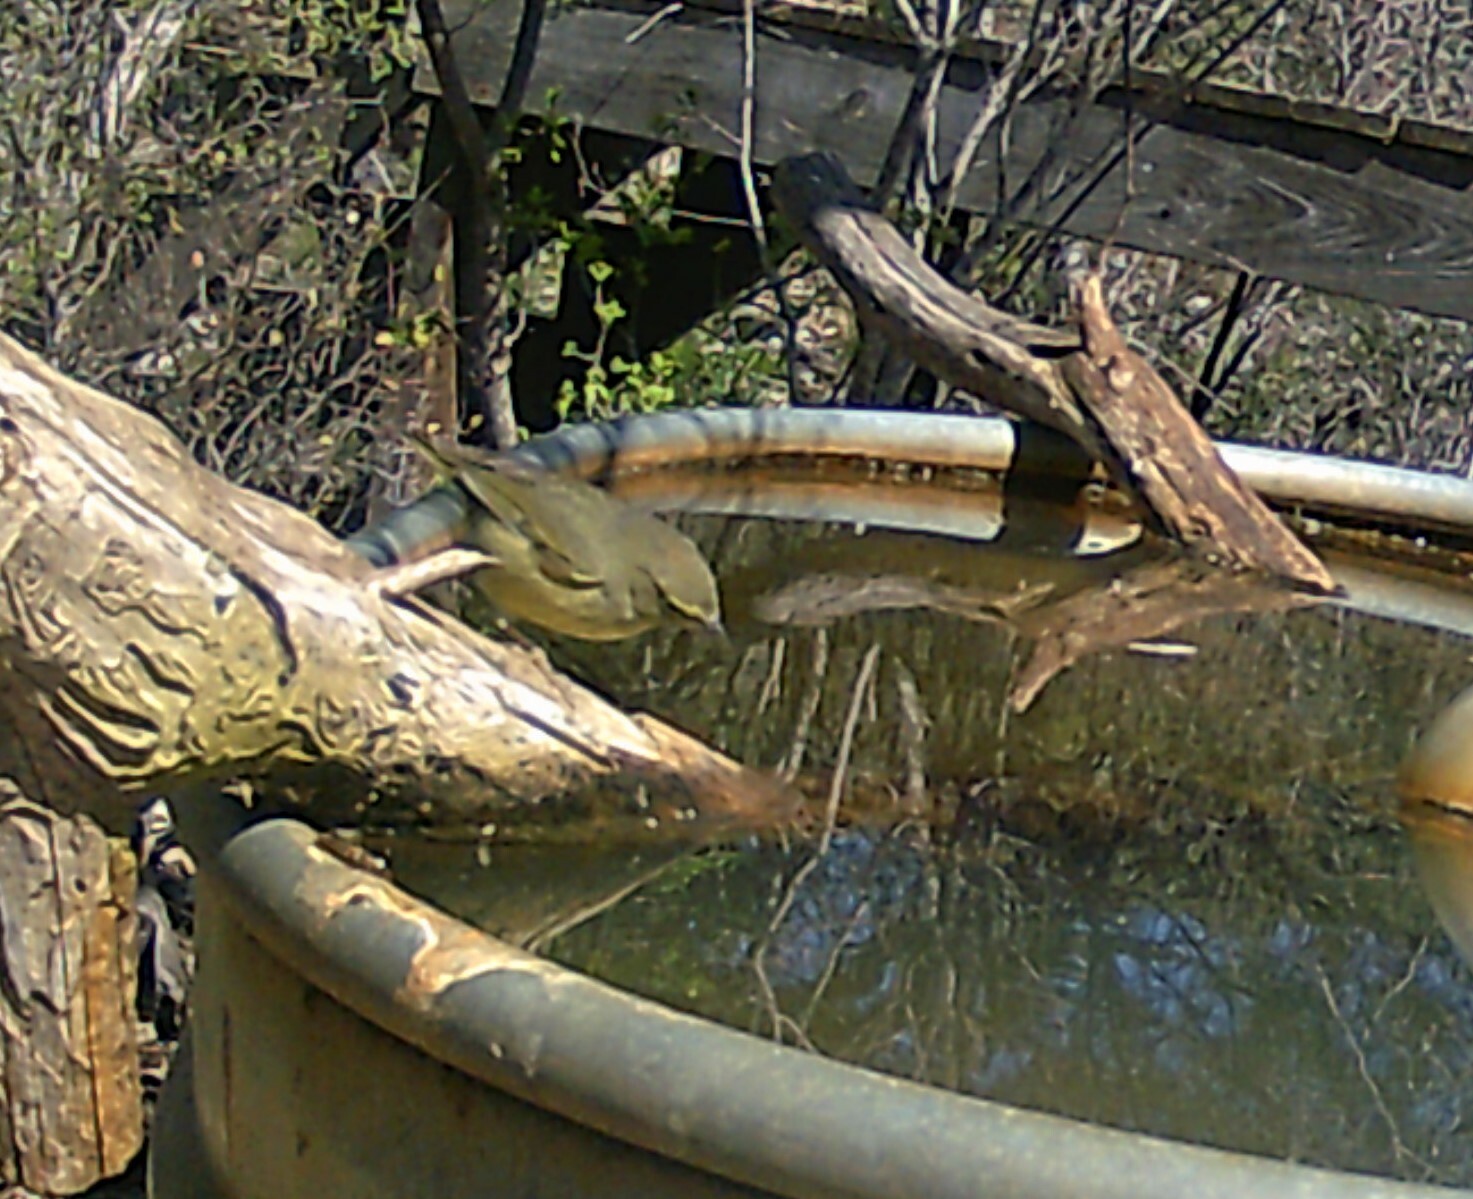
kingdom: Animalia
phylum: Chordata
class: Aves
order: Passeriformes
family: Parulidae
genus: Leiothlypis
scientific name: Leiothlypis celata
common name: Orange-crowned warbler
